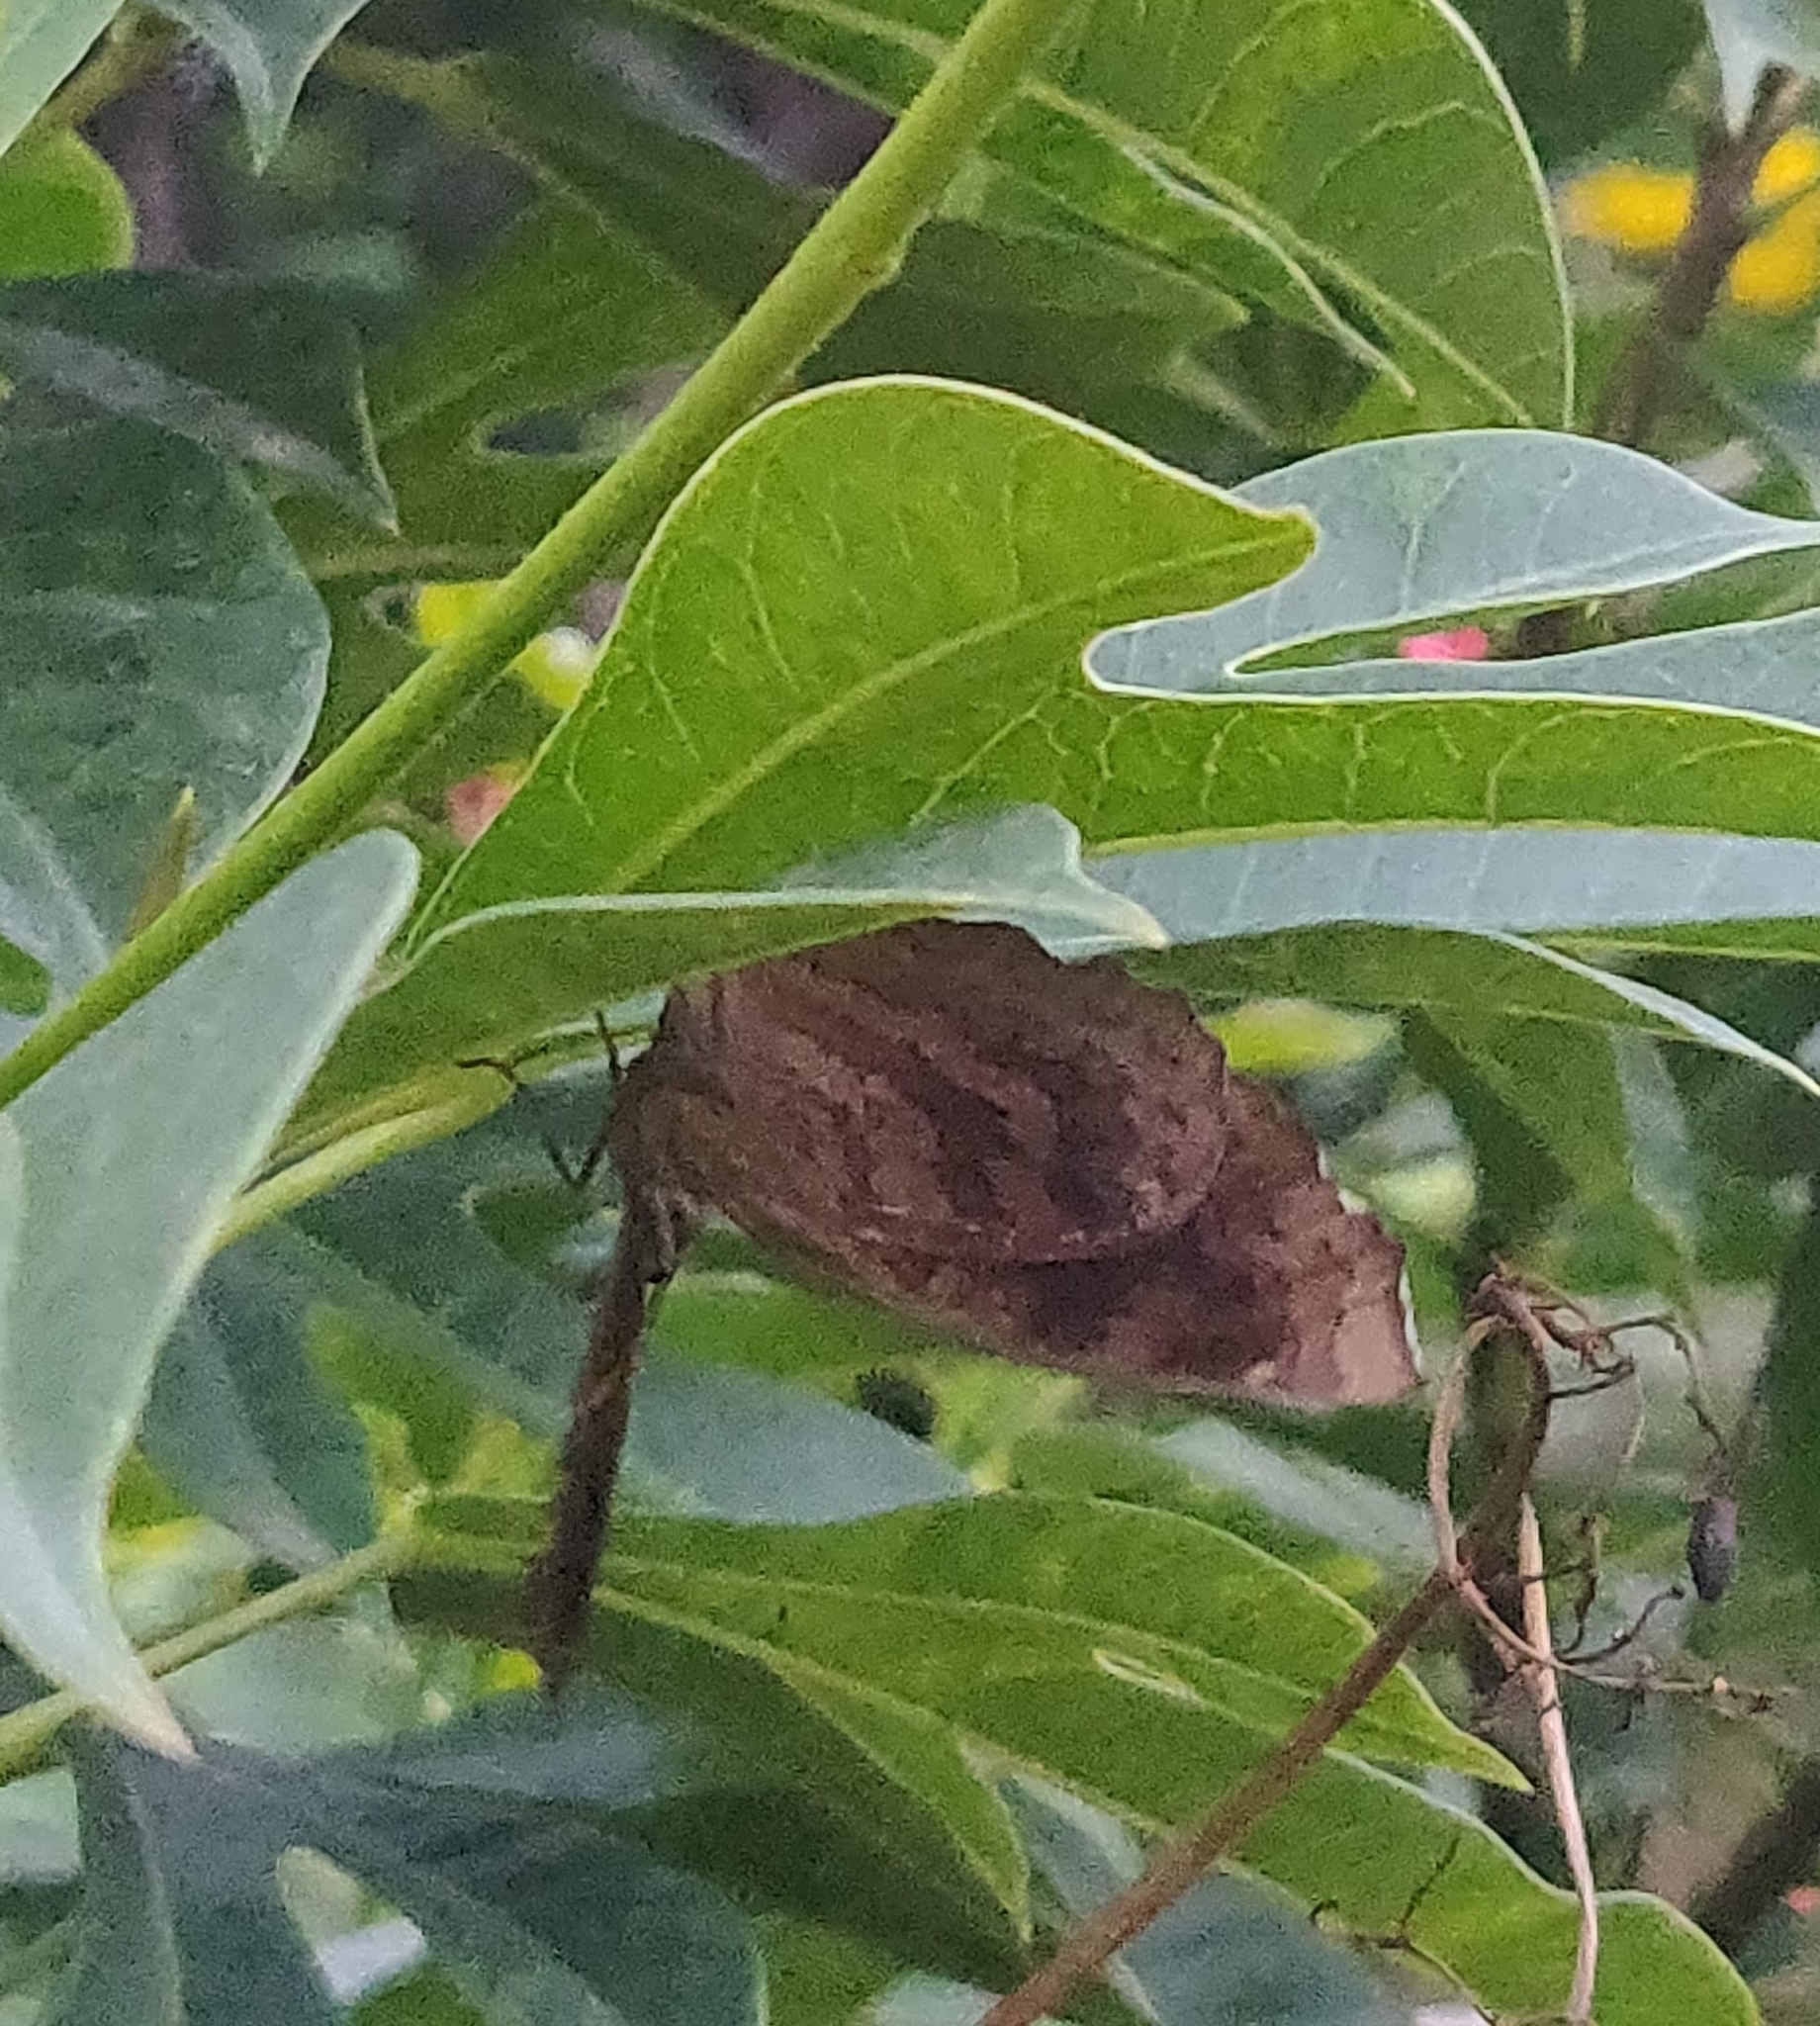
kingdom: Animalia
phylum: Arthropoda
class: Insecta
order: Lepidoptera
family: Nymphalidae
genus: Ariadne
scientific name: Ariadne merione
